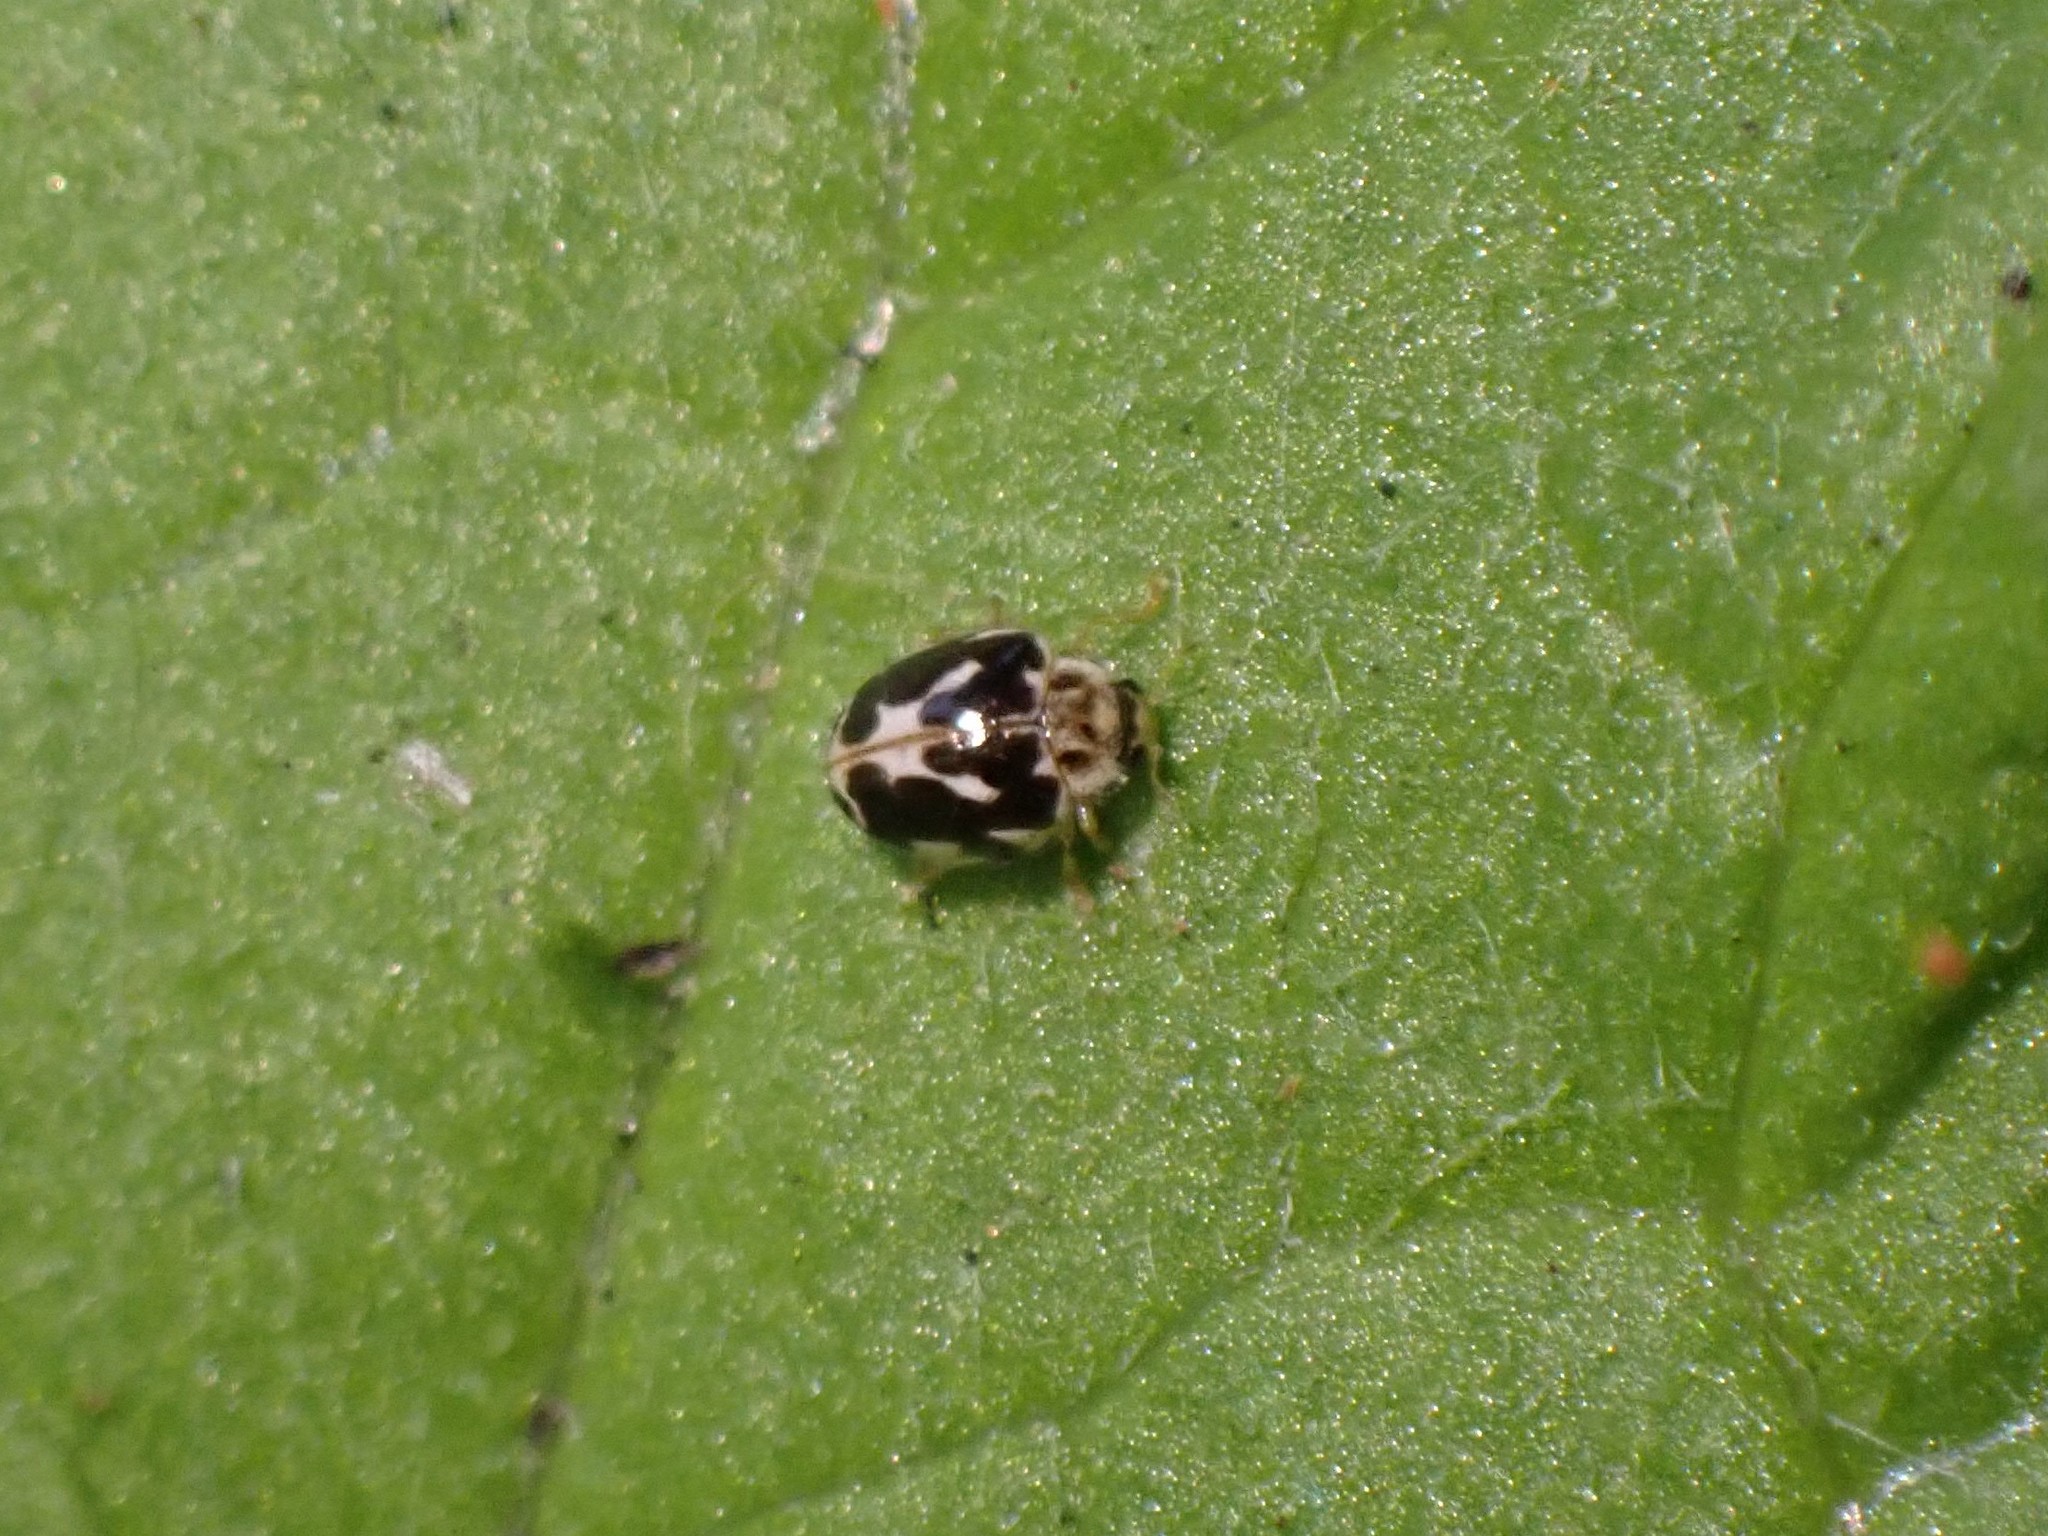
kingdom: Animalia
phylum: Arthropoda
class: Insecta
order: Coleoptera
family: Coccinellidae
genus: Psyllobora
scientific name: Psyllobora vigintimaculata
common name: Ladybird beetle
